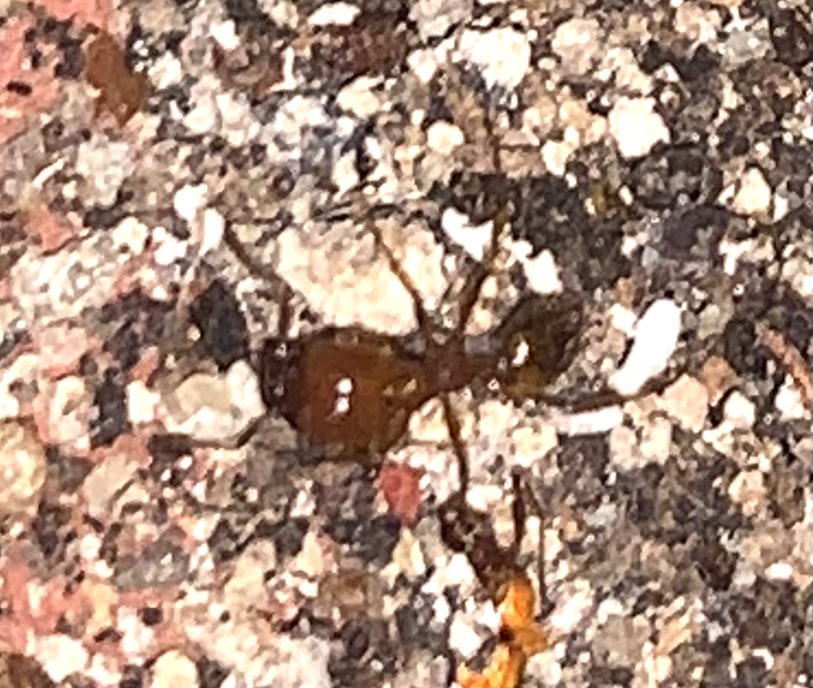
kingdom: Animalia
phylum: Arthropoda
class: Insecta
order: Hymenoptera
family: Formicidae
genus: Pheidole
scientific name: Pheidole dentata
